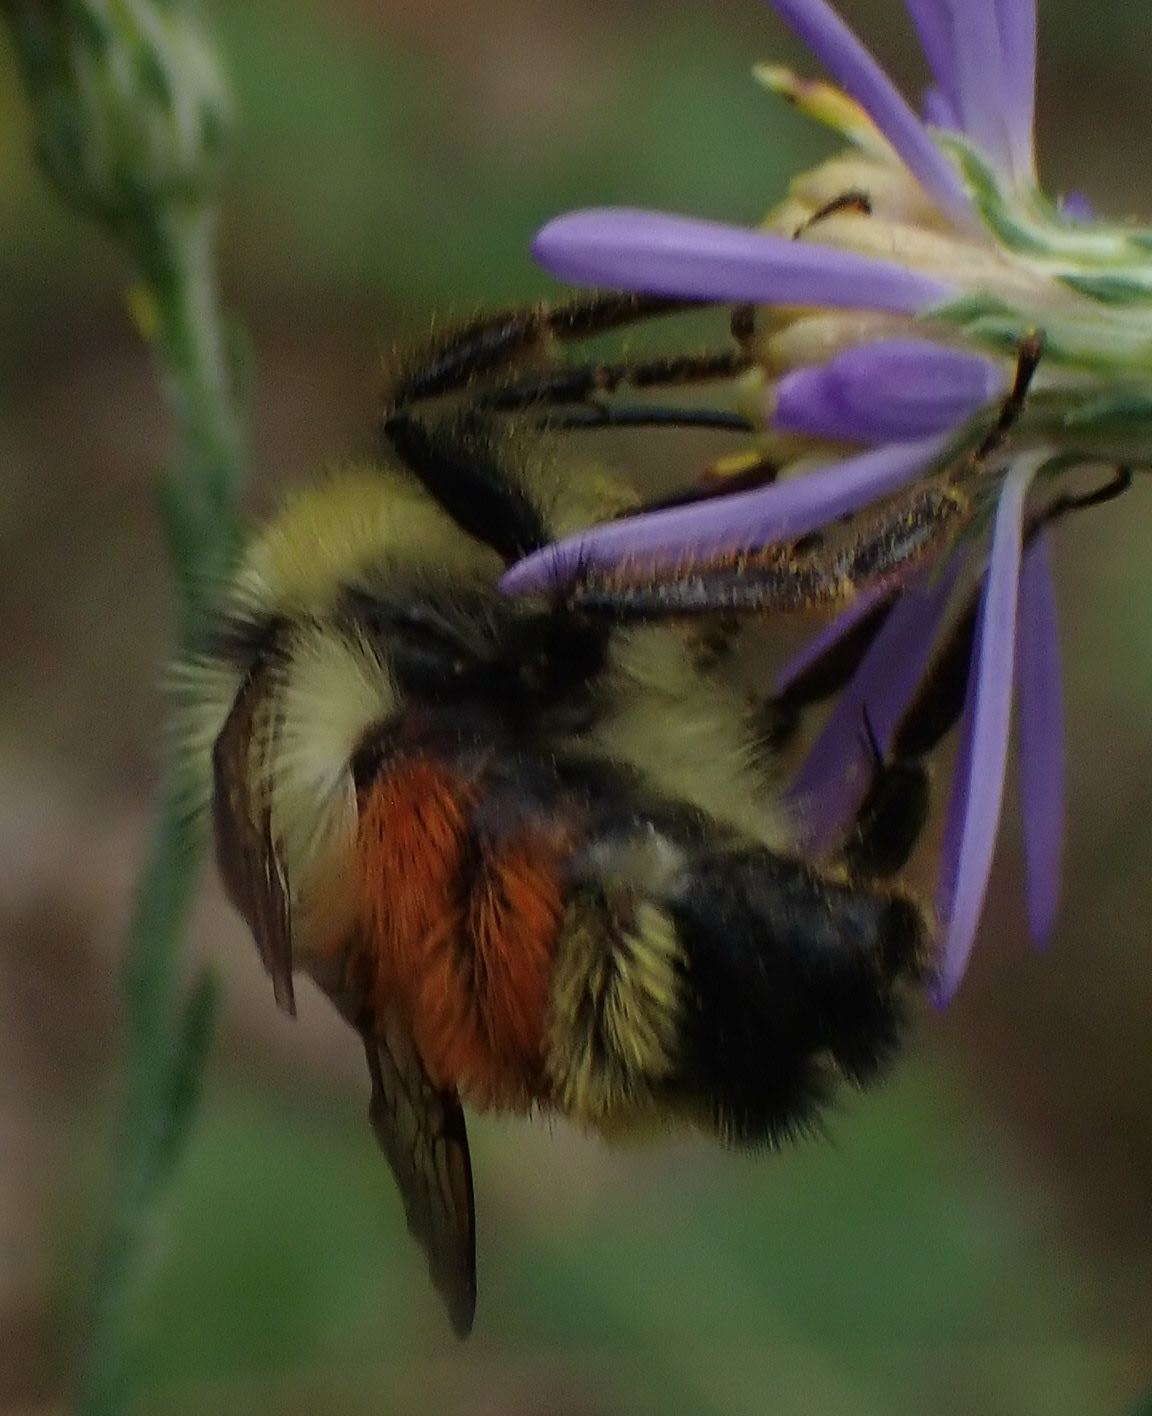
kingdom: Animalia
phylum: Arthropoda
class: Insecta
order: Hymenoptera
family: Apidae
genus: Bombus
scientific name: Bombus ternarius
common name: Tri-colored bumble bee
